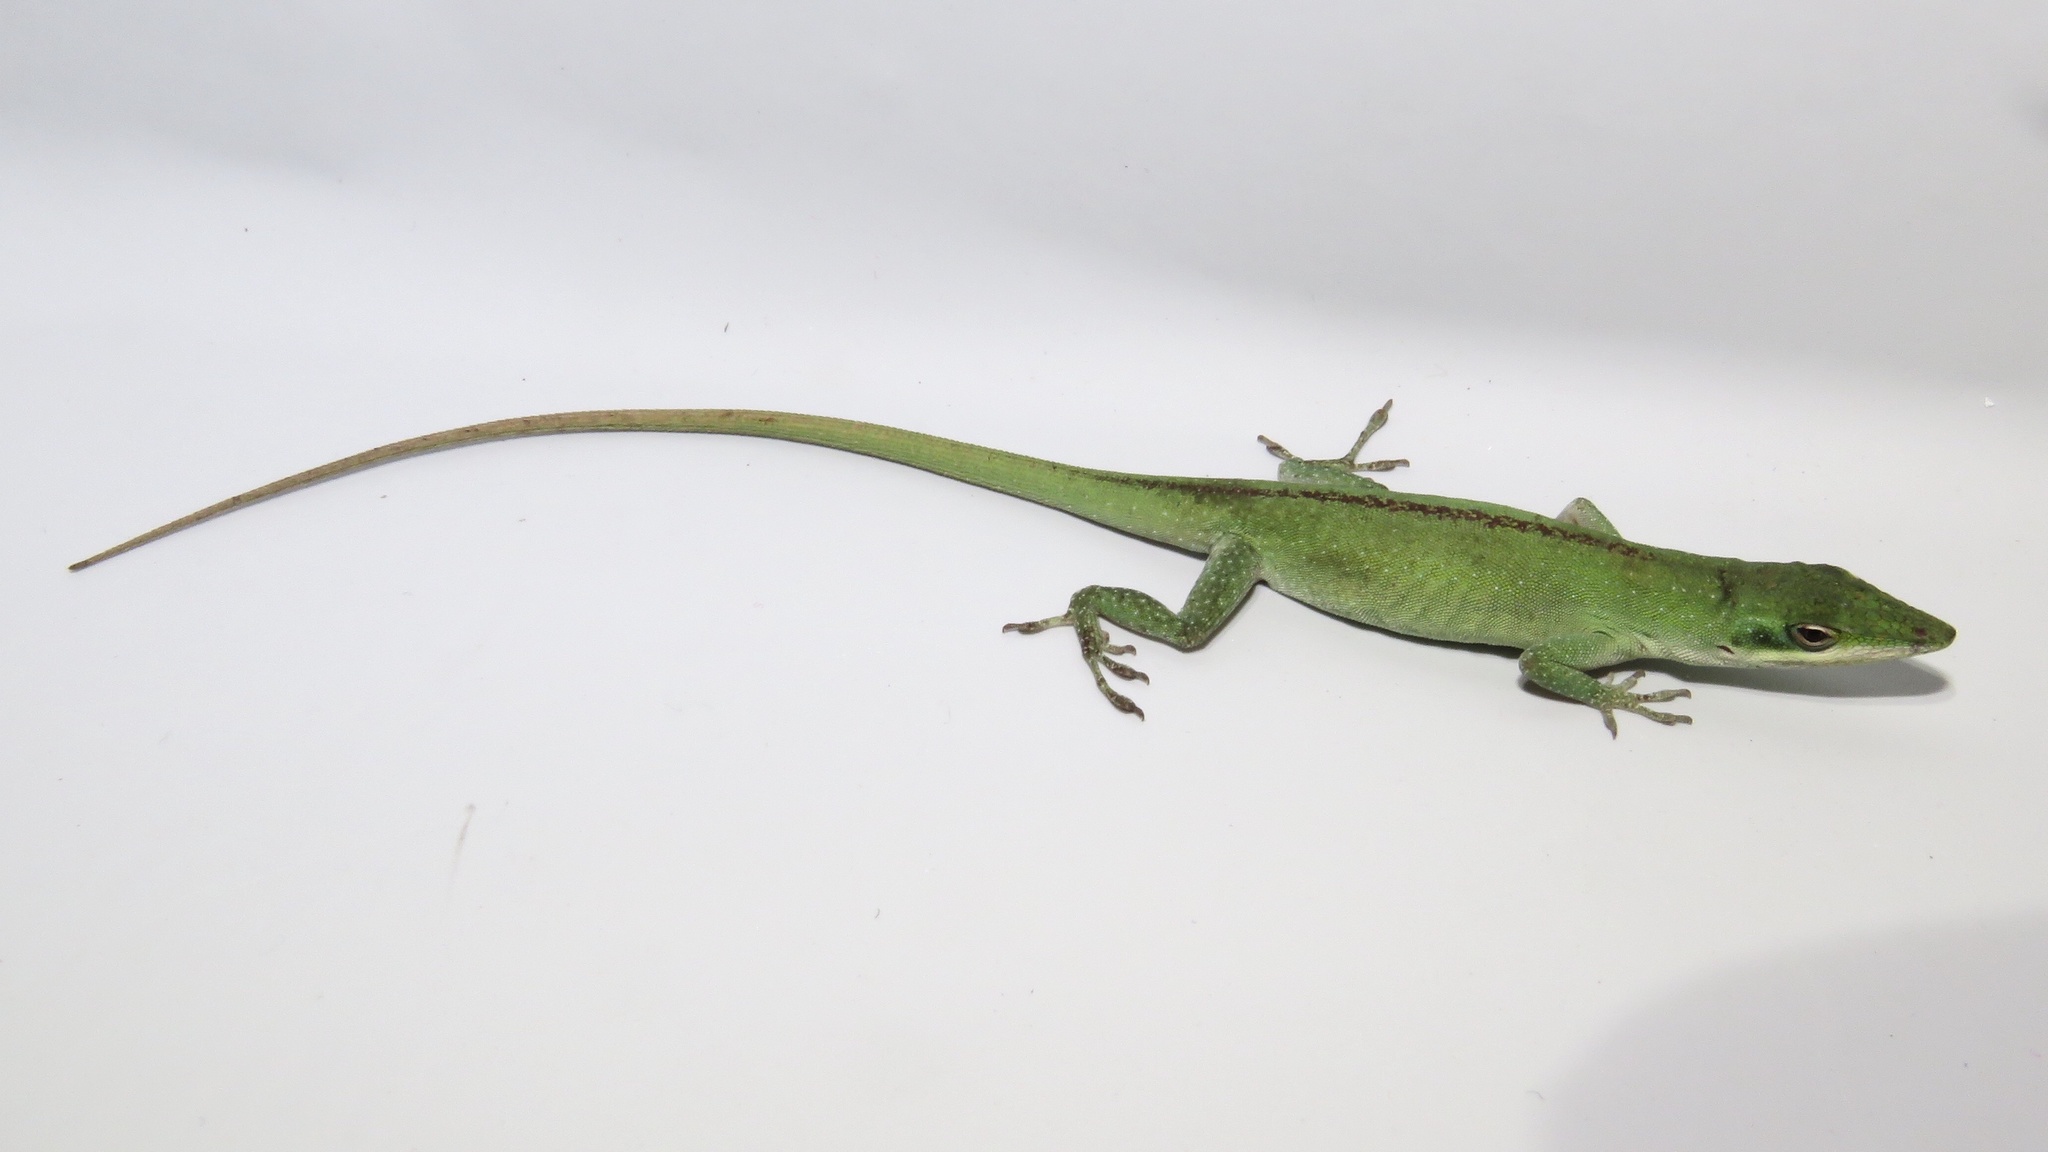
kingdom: Animalia
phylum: Chordata
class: Squamata
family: Dactyloidae
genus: Anolis
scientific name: Anolis carolinensis
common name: Green anole
